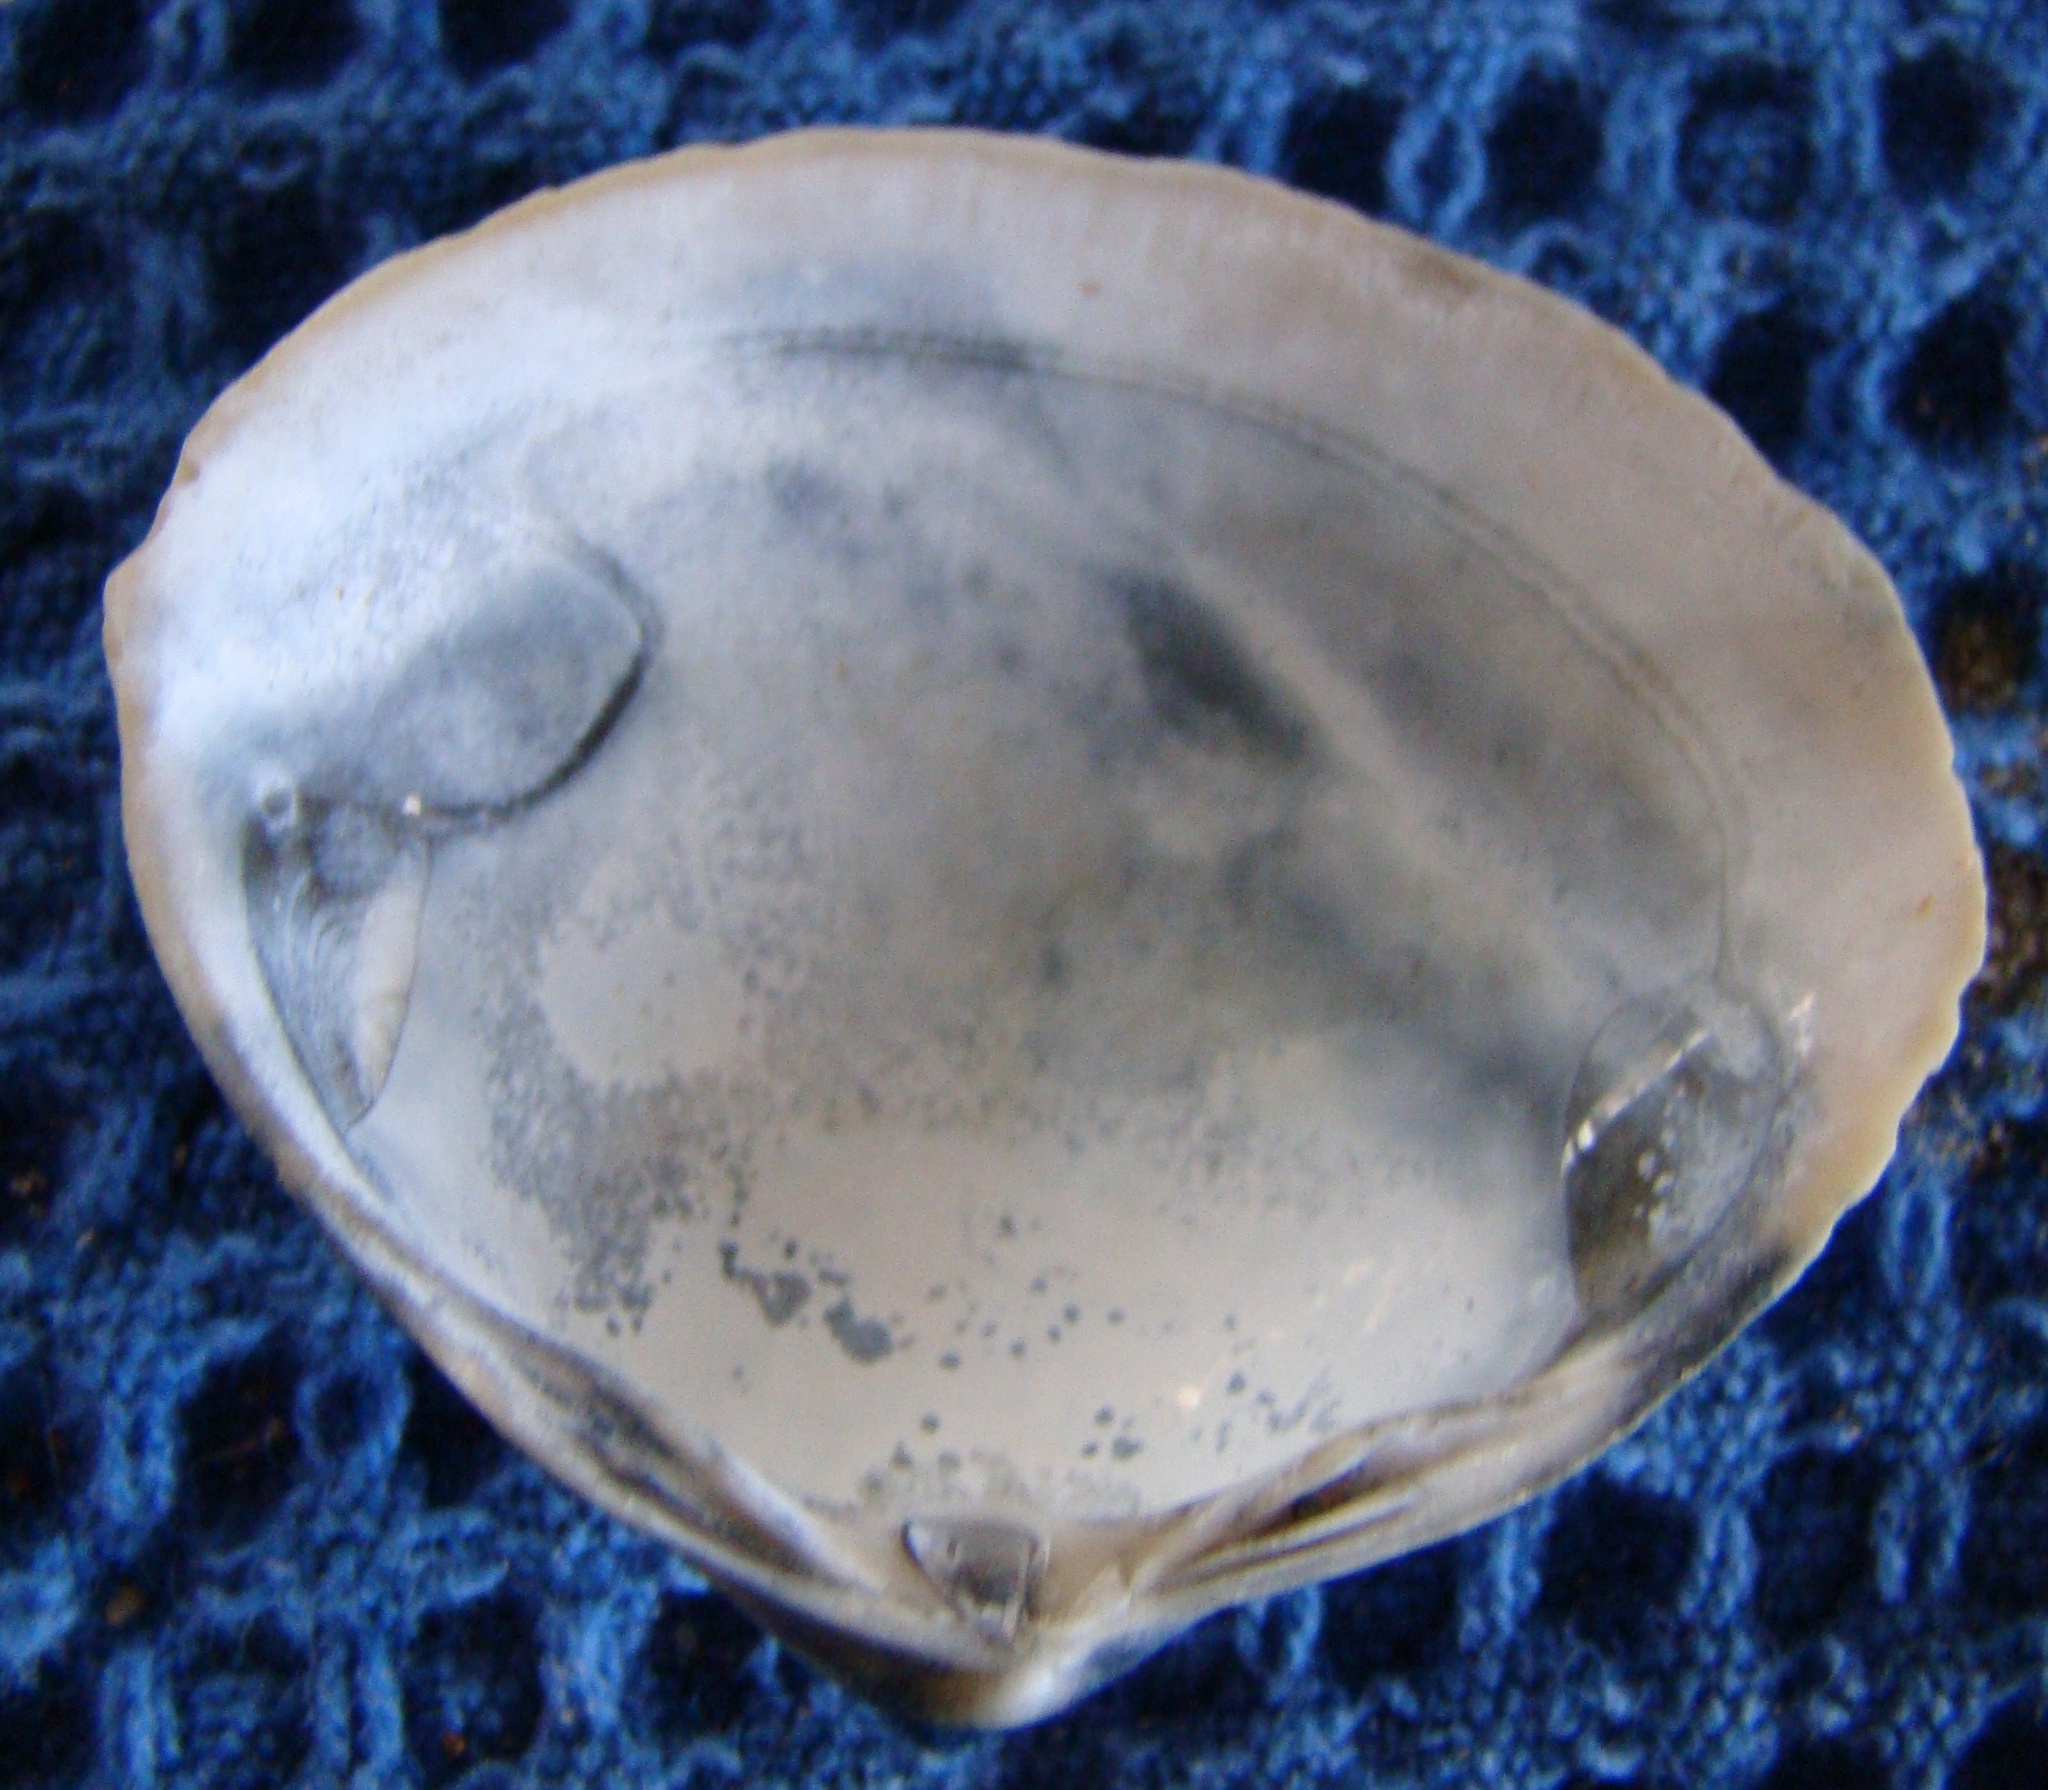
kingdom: Animalia
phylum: Mollusca
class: Bivalvia
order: Venerida
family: Mactridae
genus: Spisula
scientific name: Spisula discors
